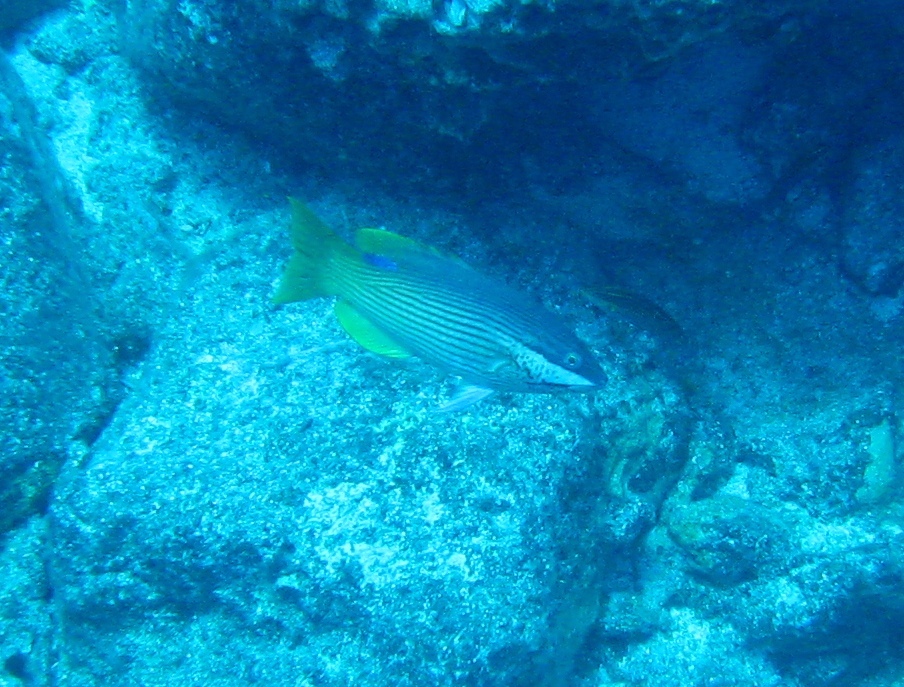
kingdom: Animalia
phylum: Chordata
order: Perciformes
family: Labridae
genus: Bodianus
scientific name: Bodianus albotaeniatus
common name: Hawaiian hogfish
